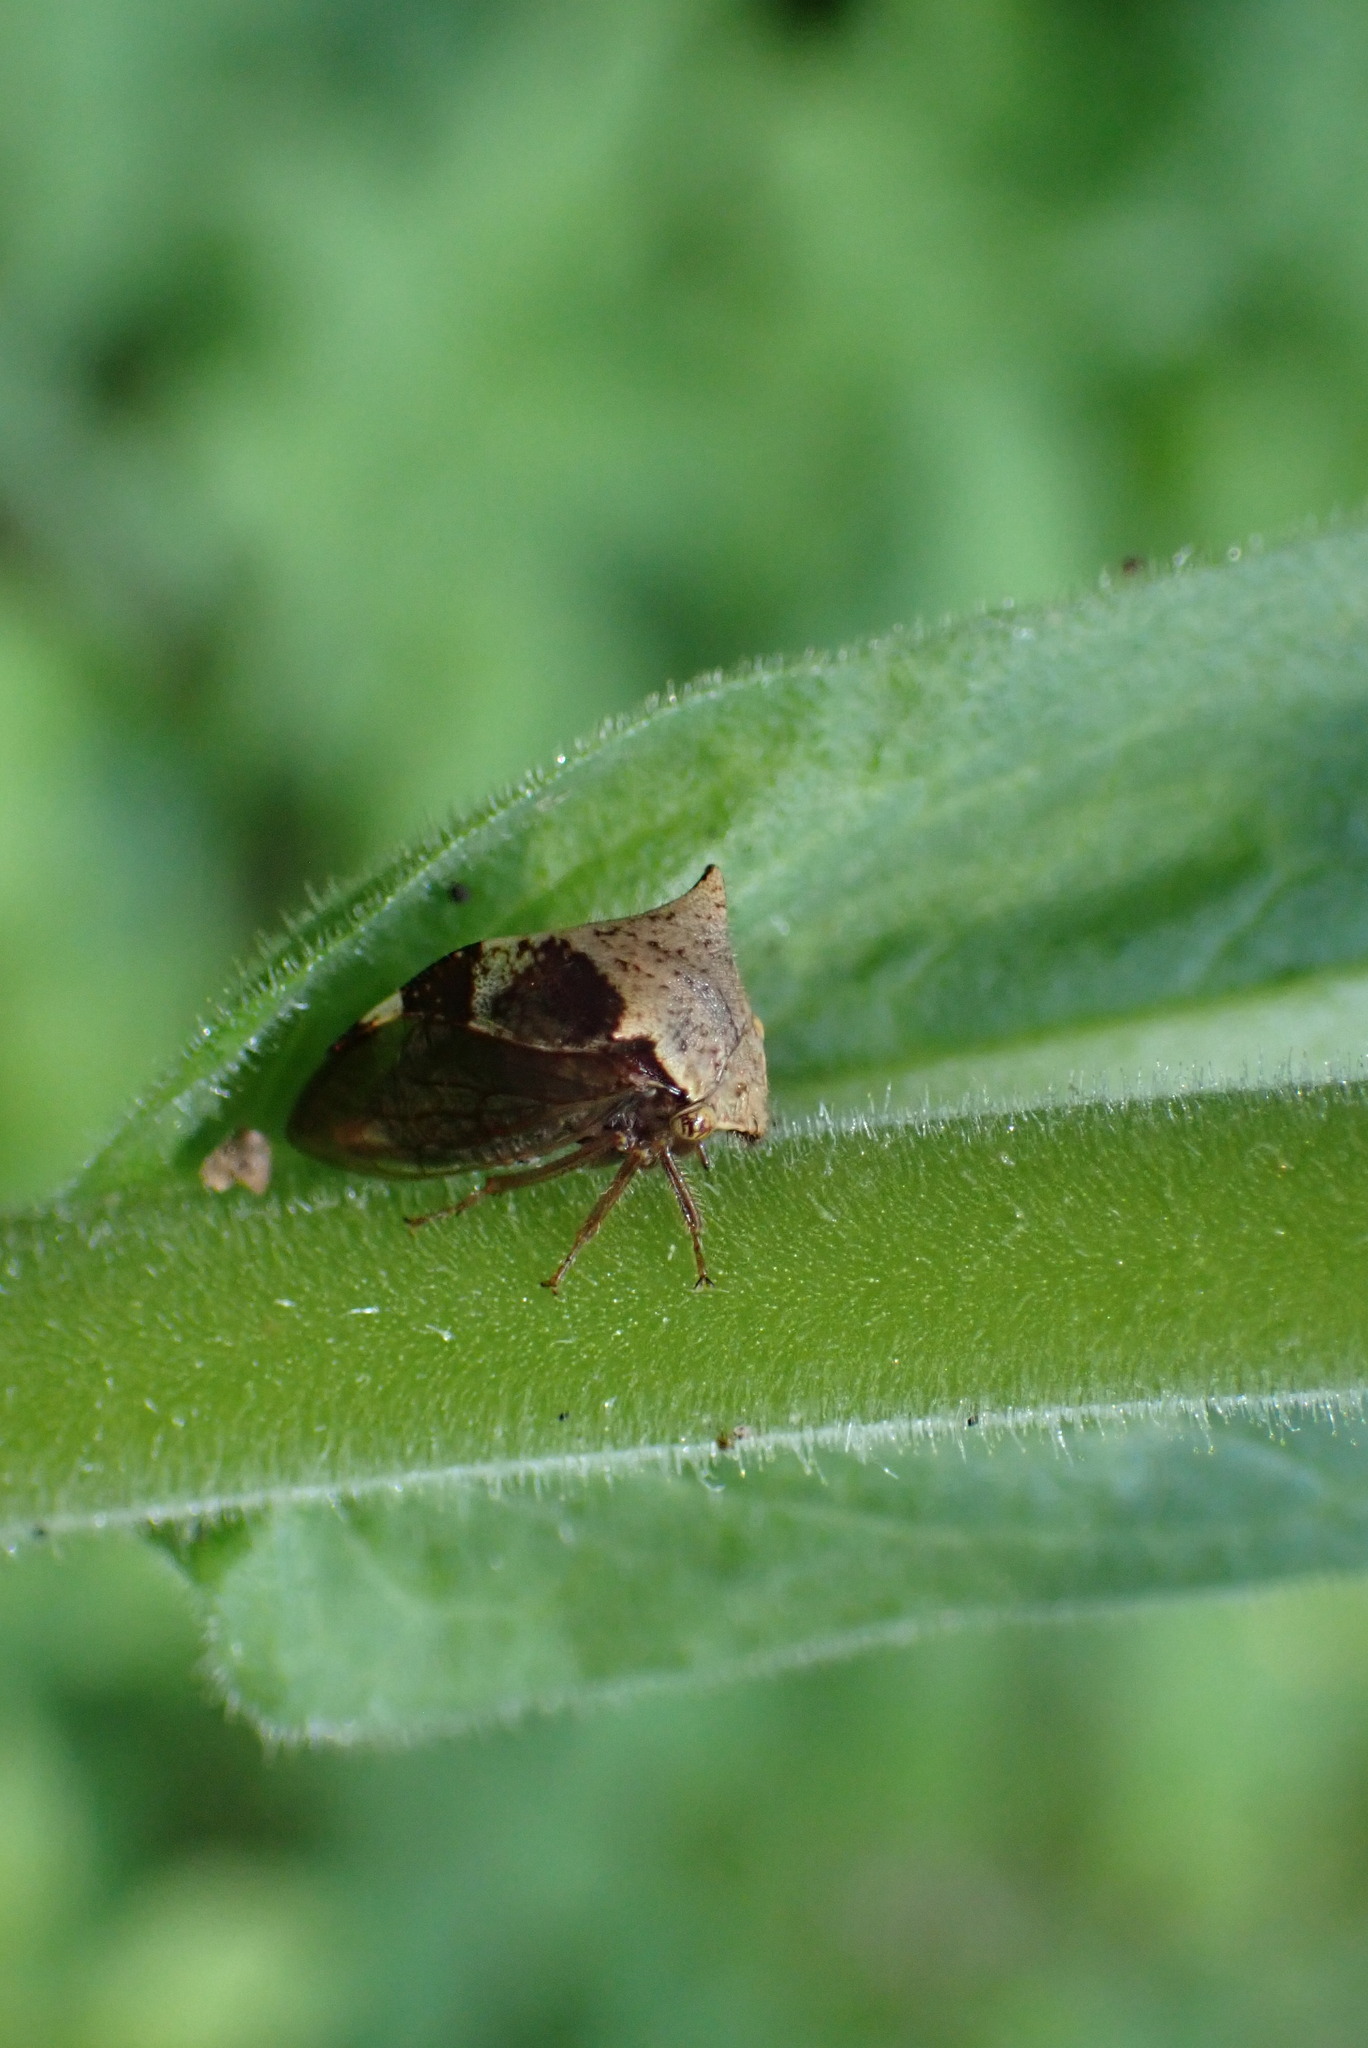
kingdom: Animalia
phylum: Arthropoda
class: Insecta
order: Hemiptera
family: Membracidae
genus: Stictocephala
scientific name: Stictocephala diceros
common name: Two-horned treehopper
